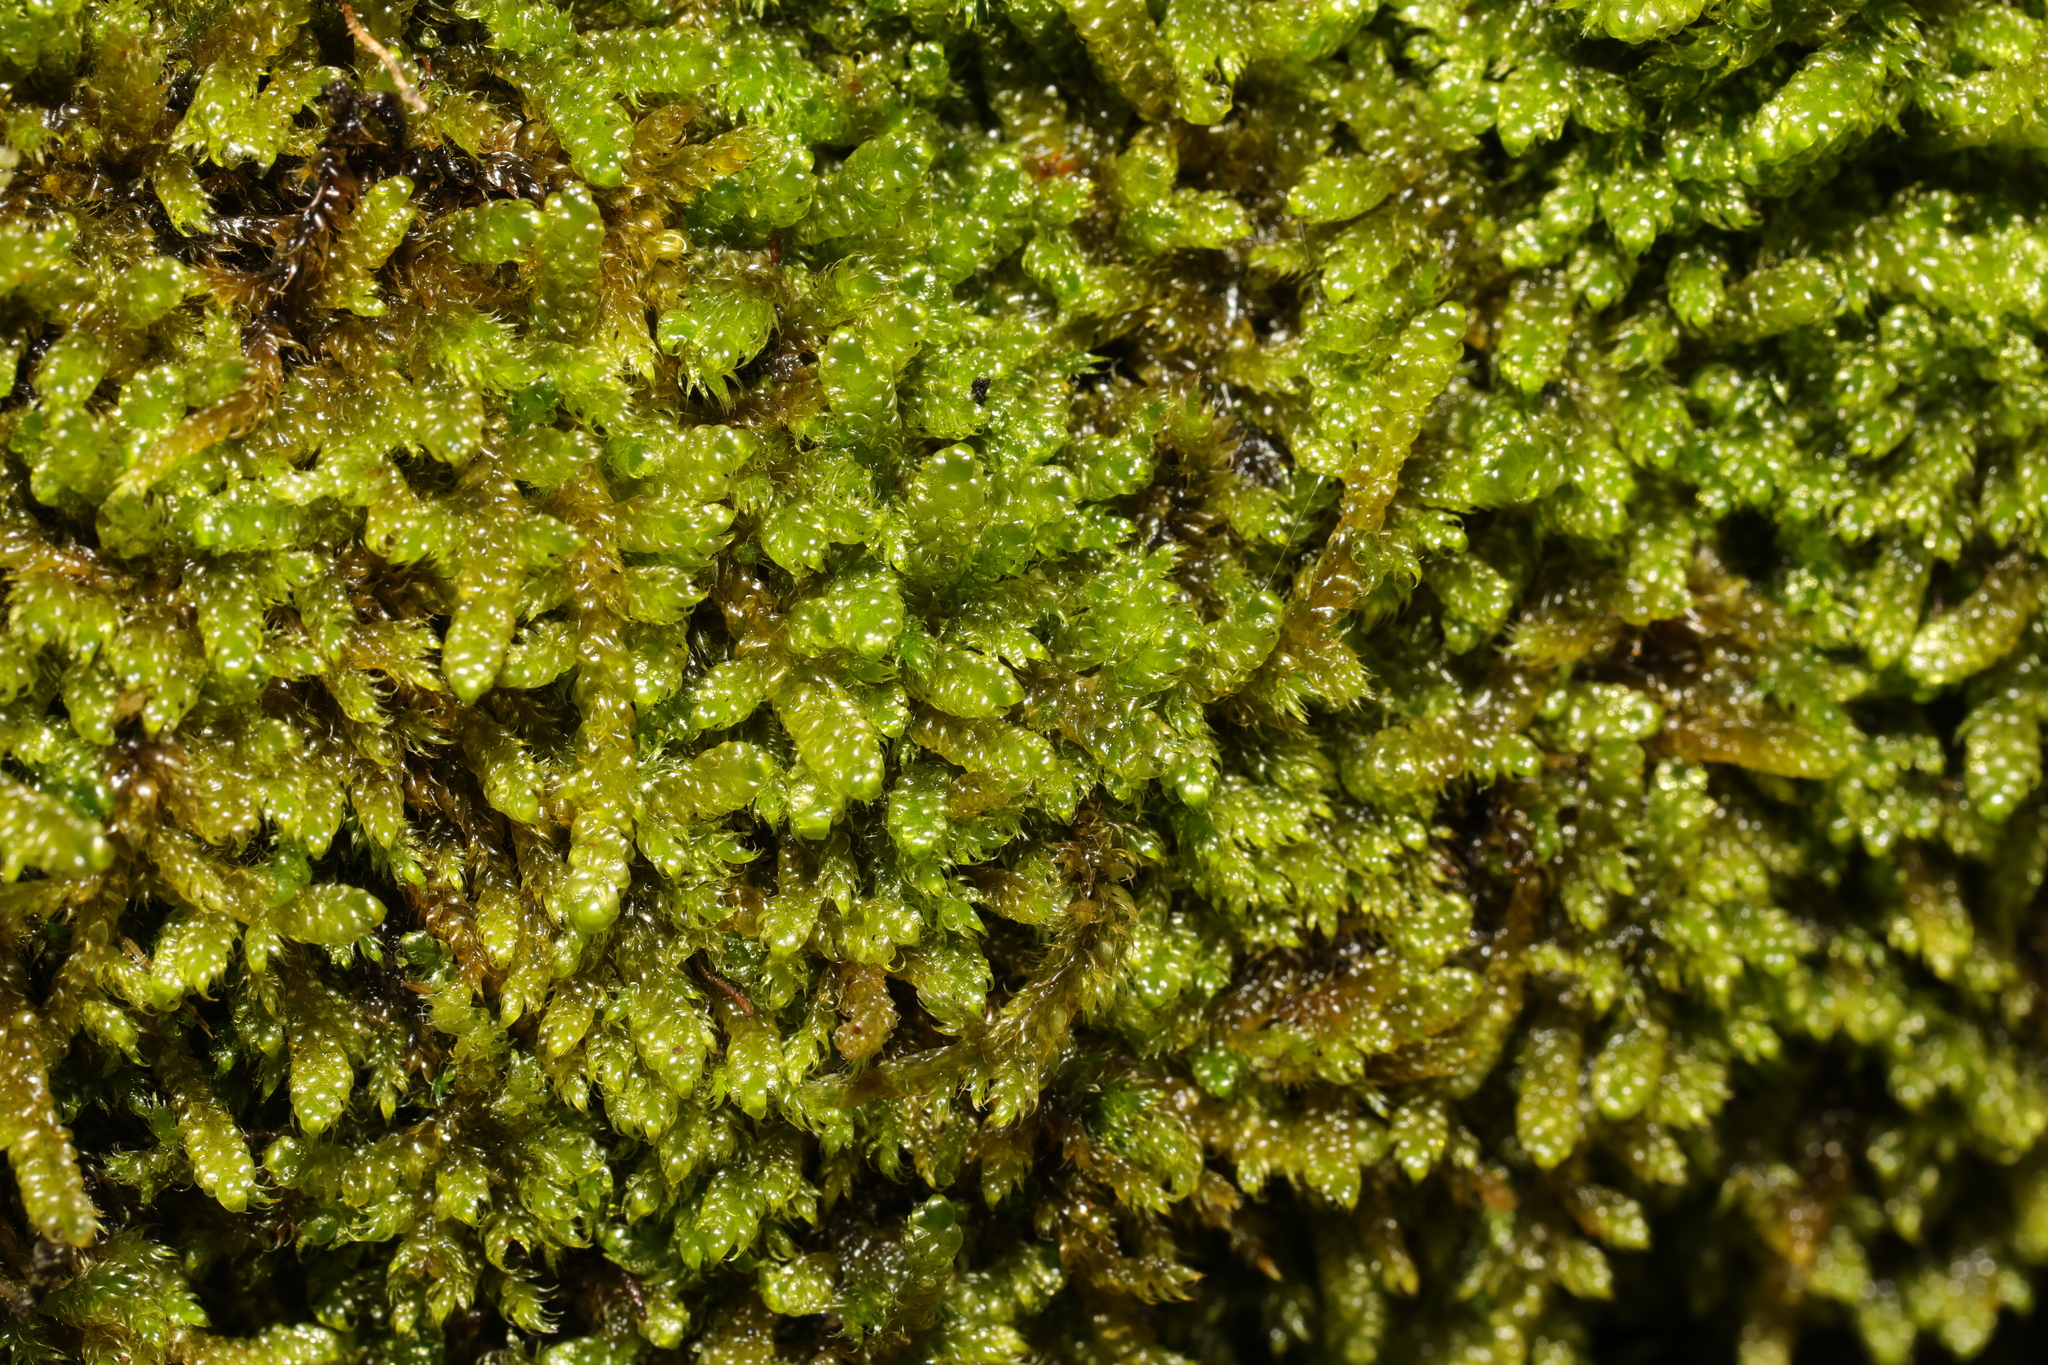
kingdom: Plantae
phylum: Bryophyta
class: Bryopsida
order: Hypnales
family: Hypnaceae
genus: Hypnum
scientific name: Hypnum cupressiforme
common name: Cypress-leaved plait-moss
